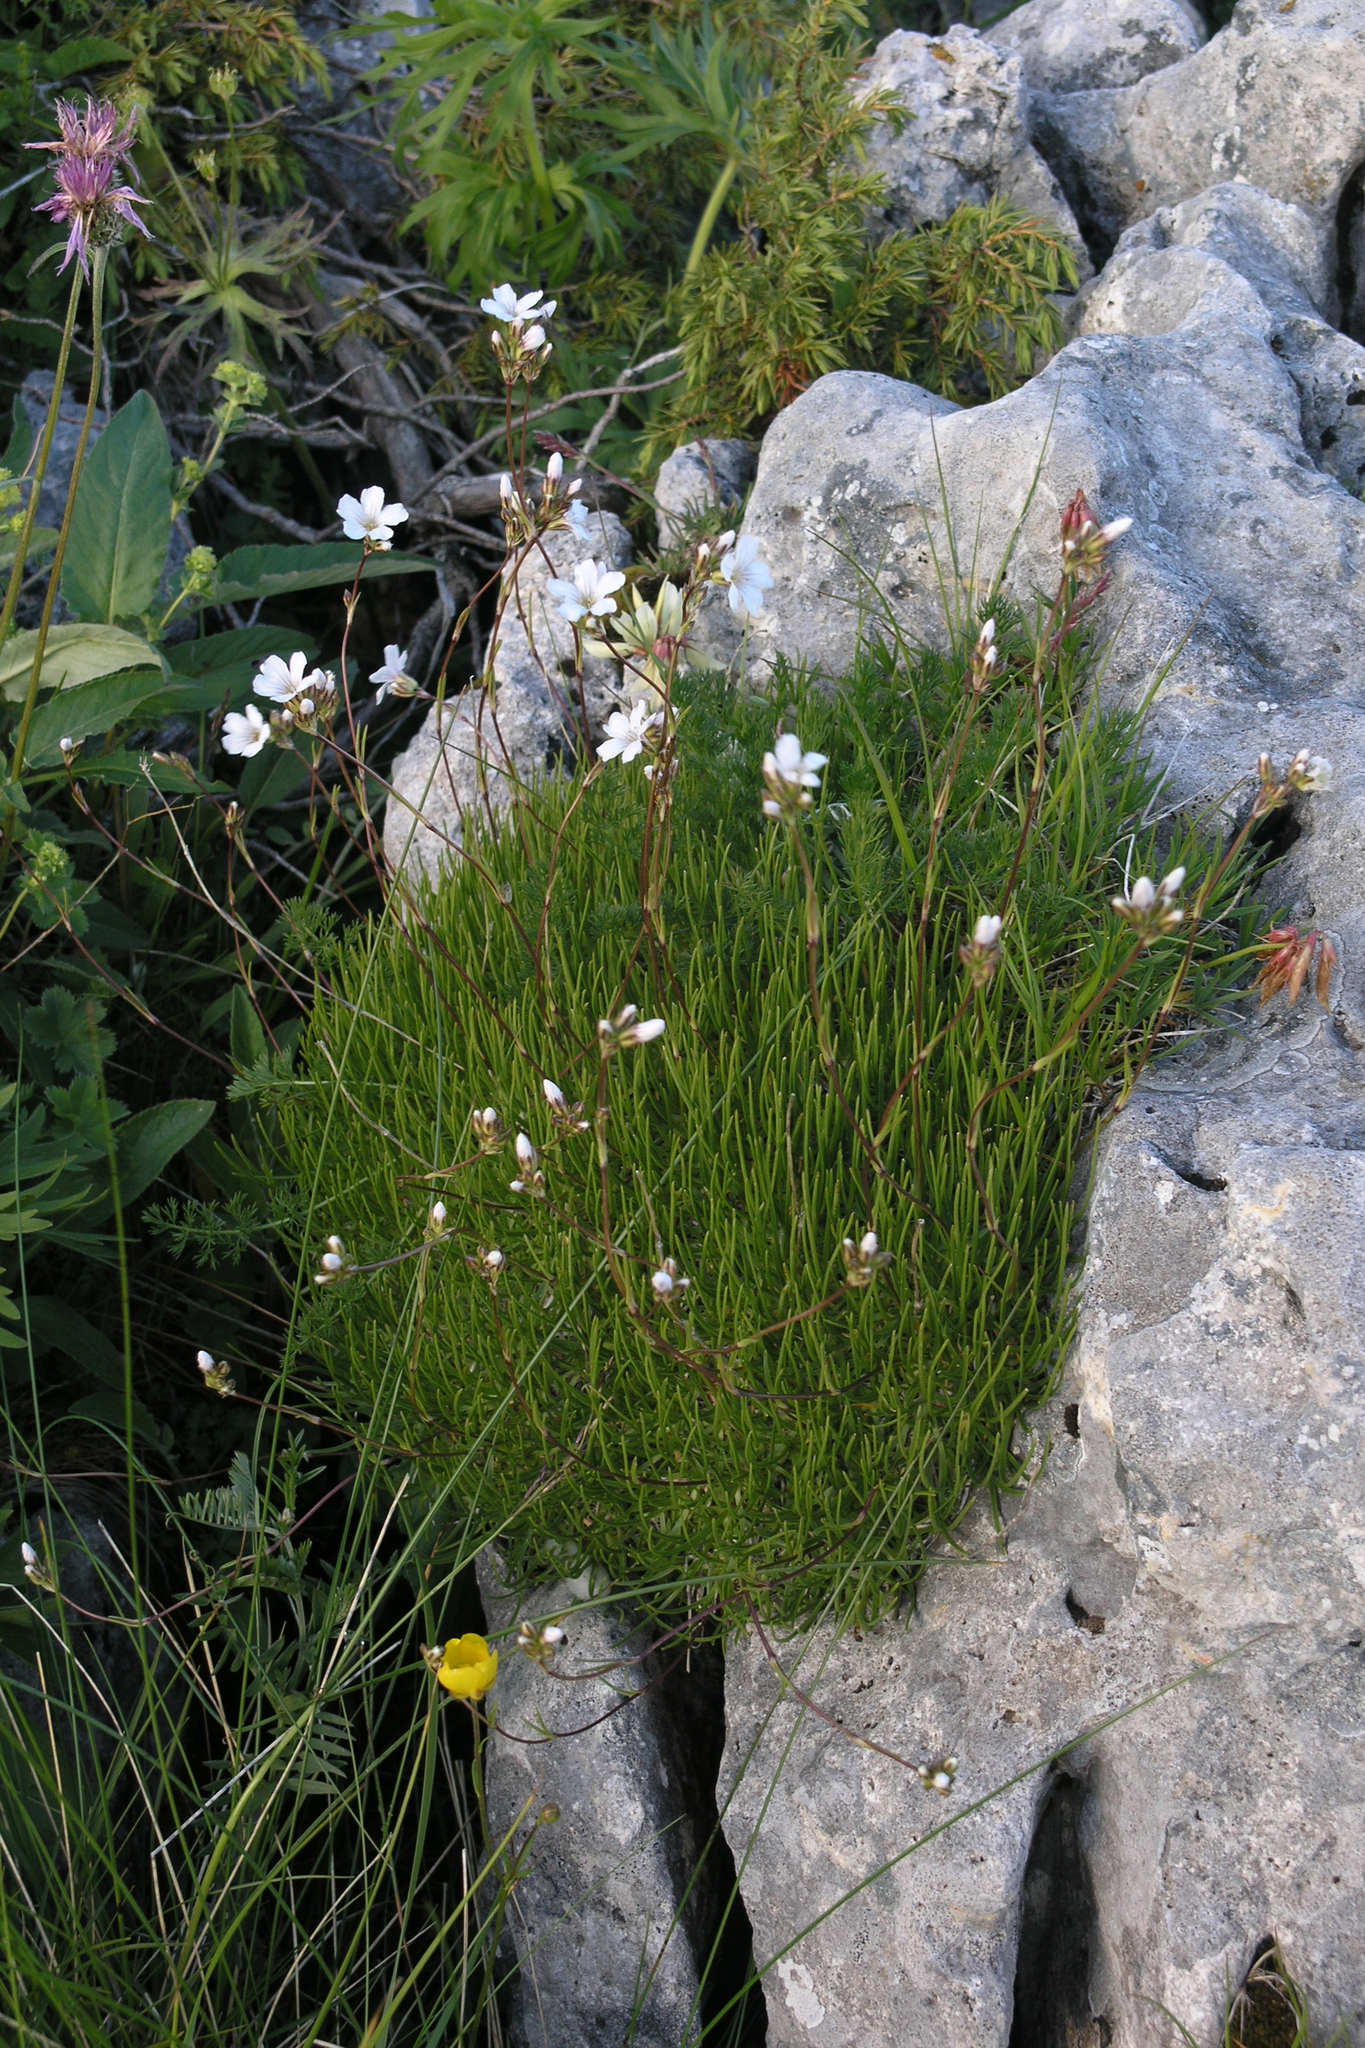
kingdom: Plantae
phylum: Tracheophyta
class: Magnoliopsida
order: Caryophyllales
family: Caryophyllaceae
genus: Gypsophila
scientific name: Gypsophila tenuifolia
